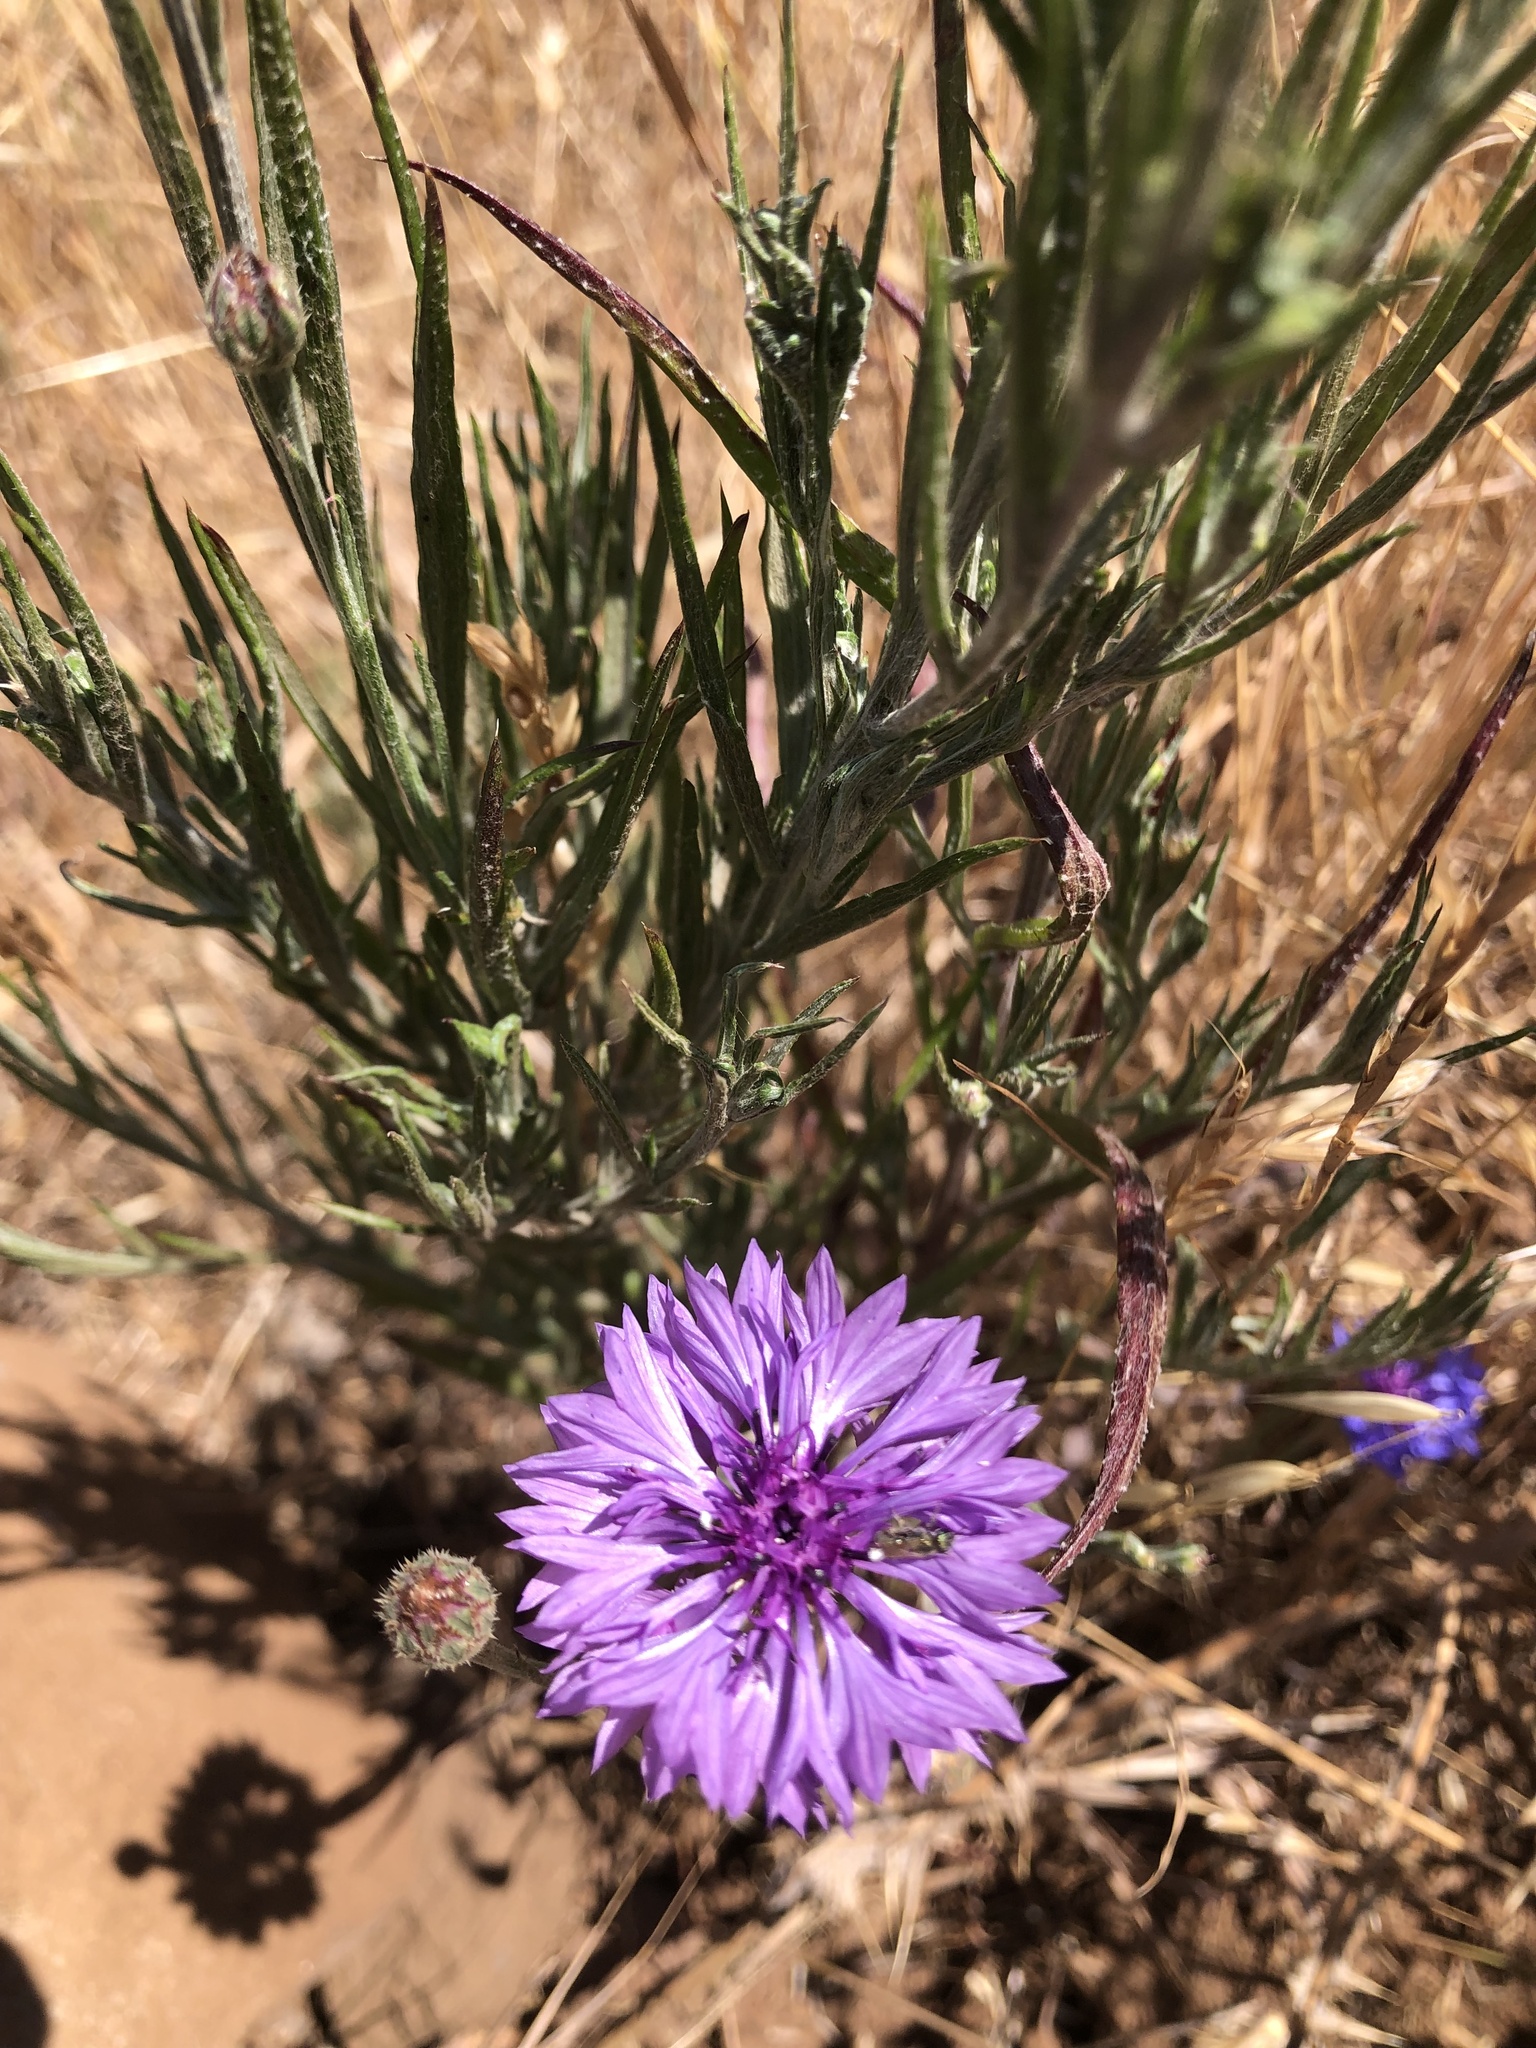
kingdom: Plantae
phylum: Tracheophyta
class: Magnoliopsida
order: Asterales
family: Asteraceae
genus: Centaurea
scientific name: Centaurea cyanus
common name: Cornflower
